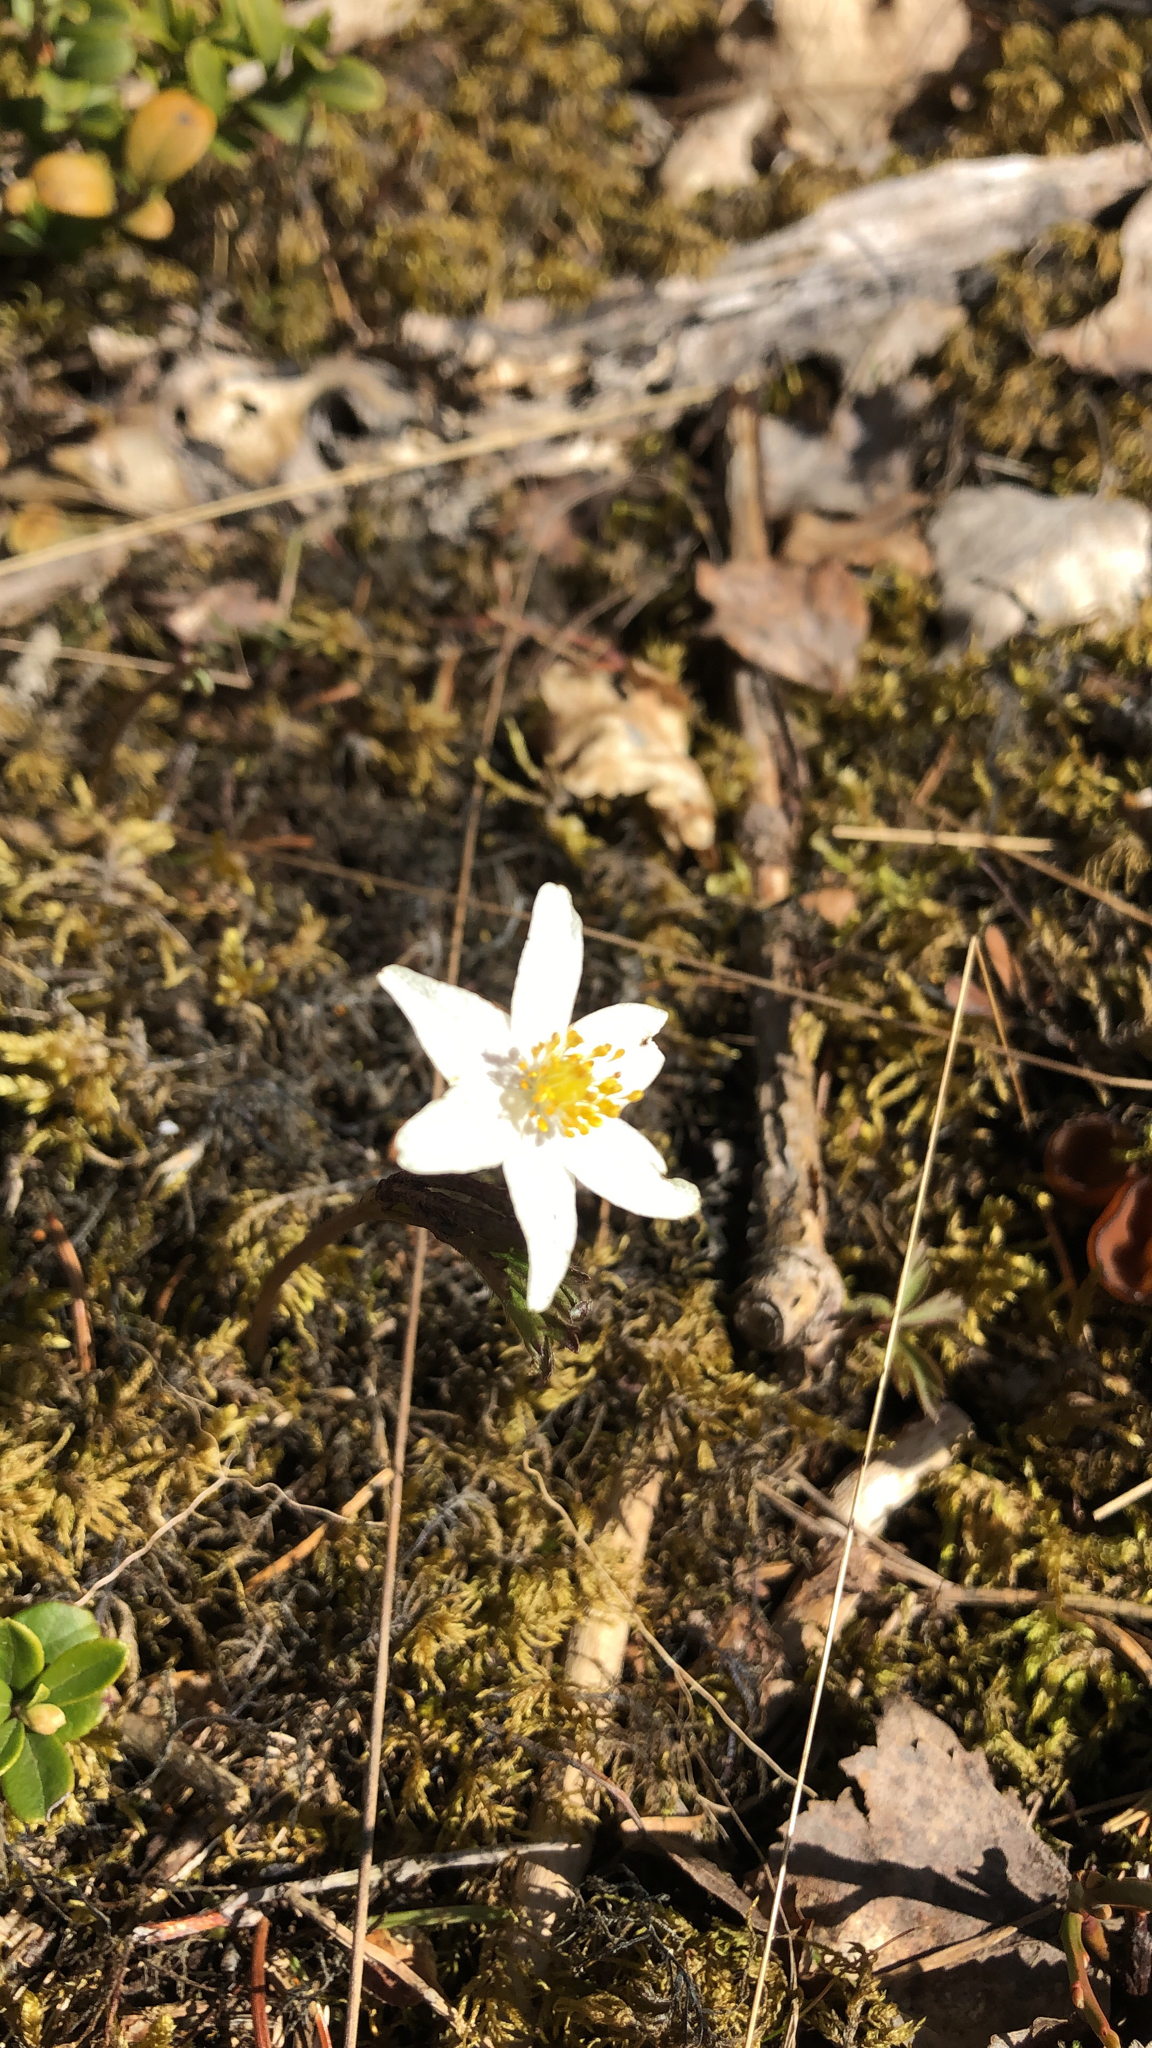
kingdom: Plantae
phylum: Tracheophyta
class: Magnoliopsida
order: Ranunculales
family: Ranunculaceae
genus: Anemone
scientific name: Anemone nemorosa
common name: Wood anemone
